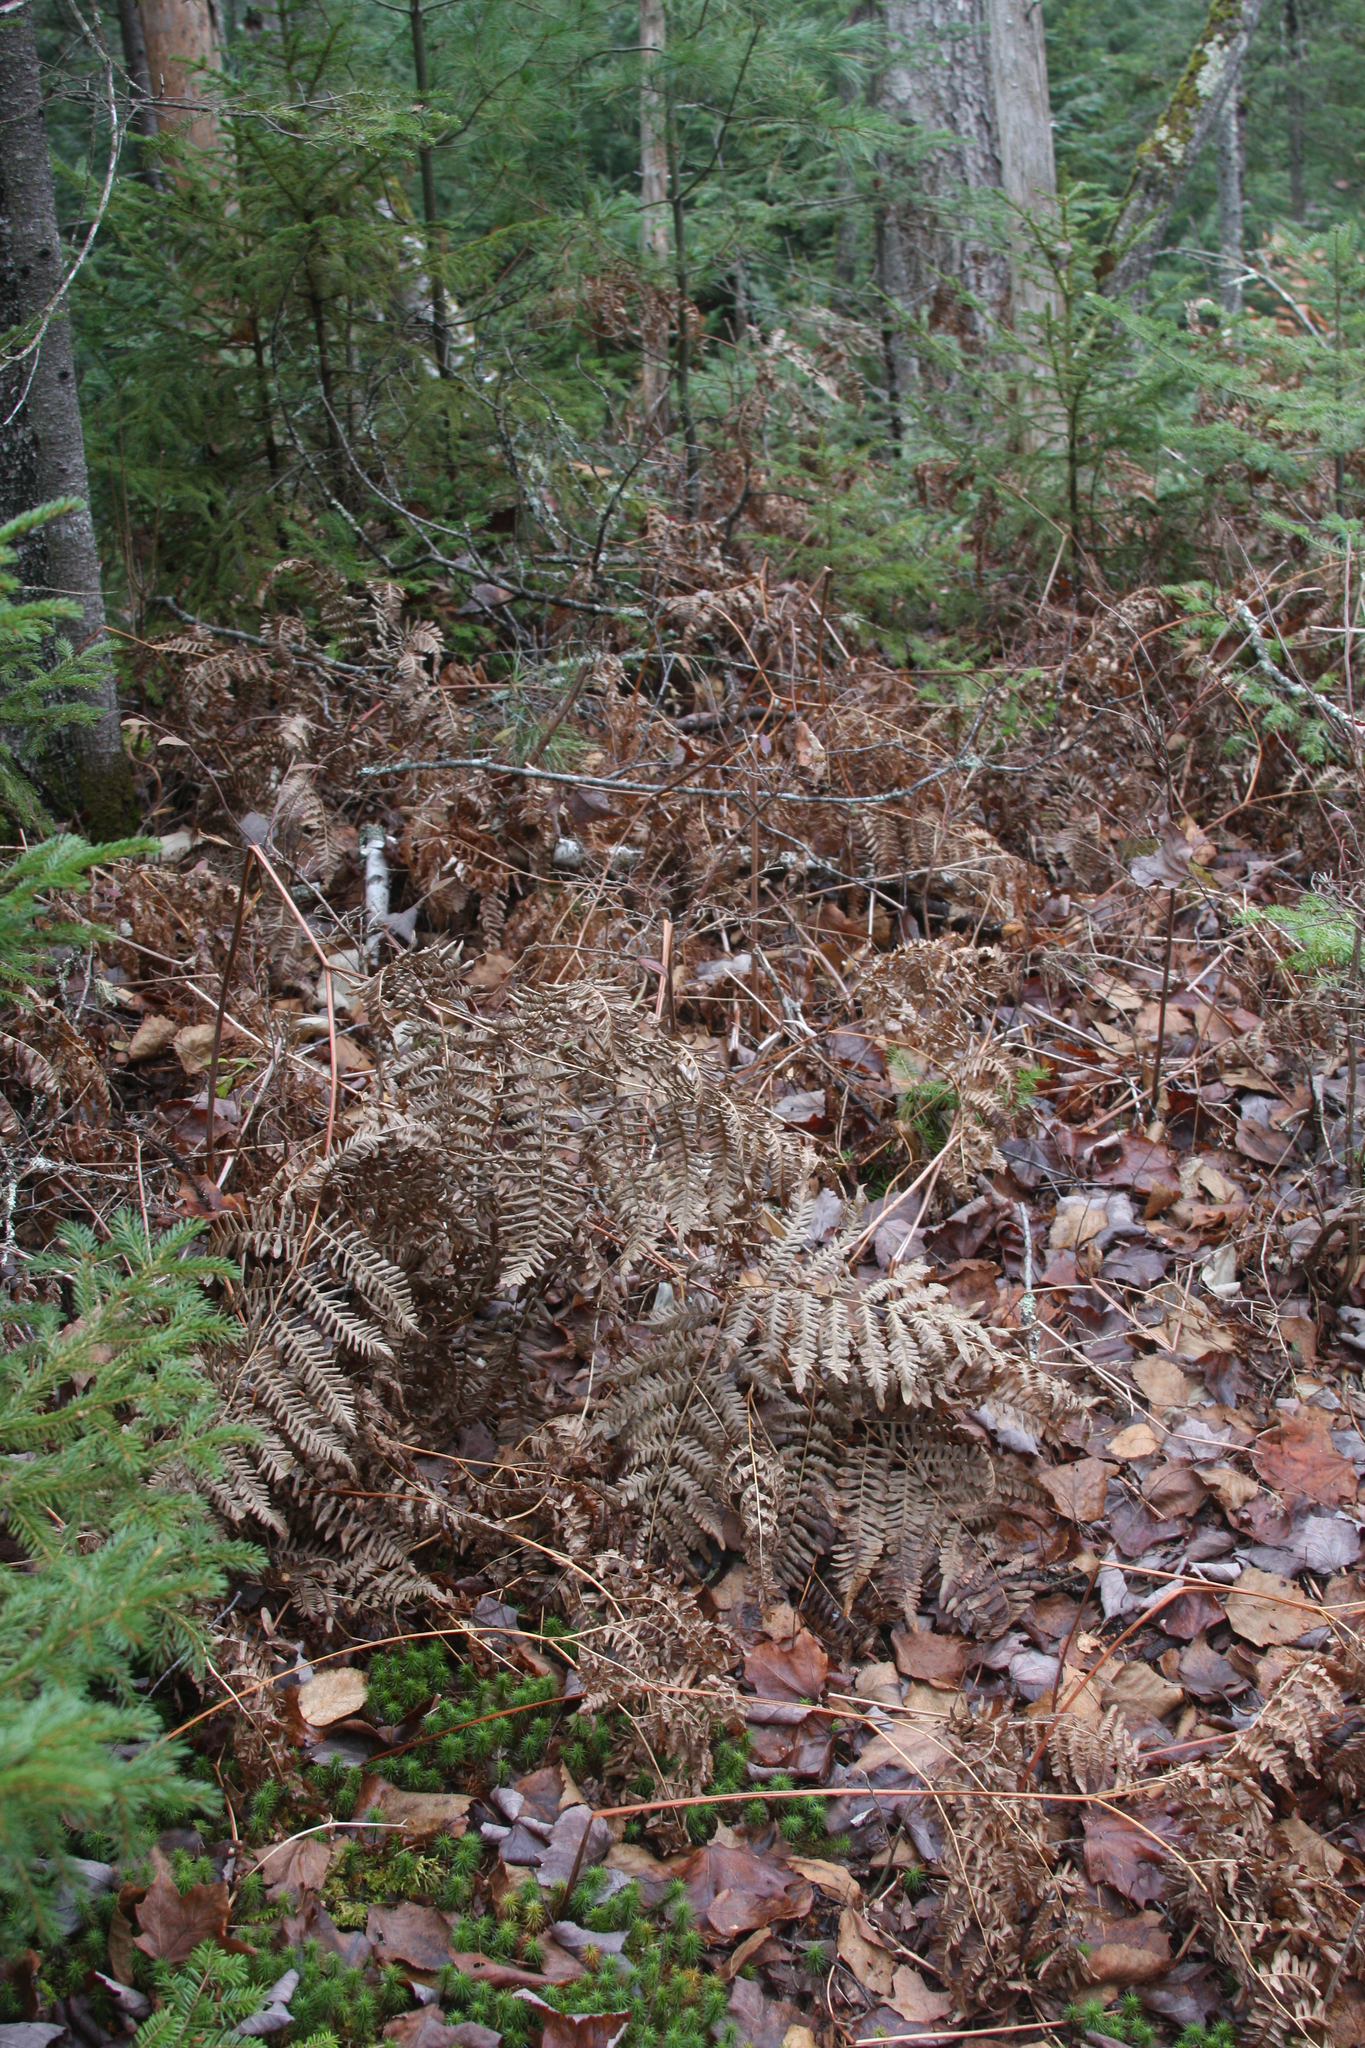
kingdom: Plantae
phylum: Tracheophyta
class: Polypodiopsida
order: Polypodiales
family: Dennstaedtiaceae
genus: Pteridium
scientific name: Pteridium aquilinum
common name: Bracken
